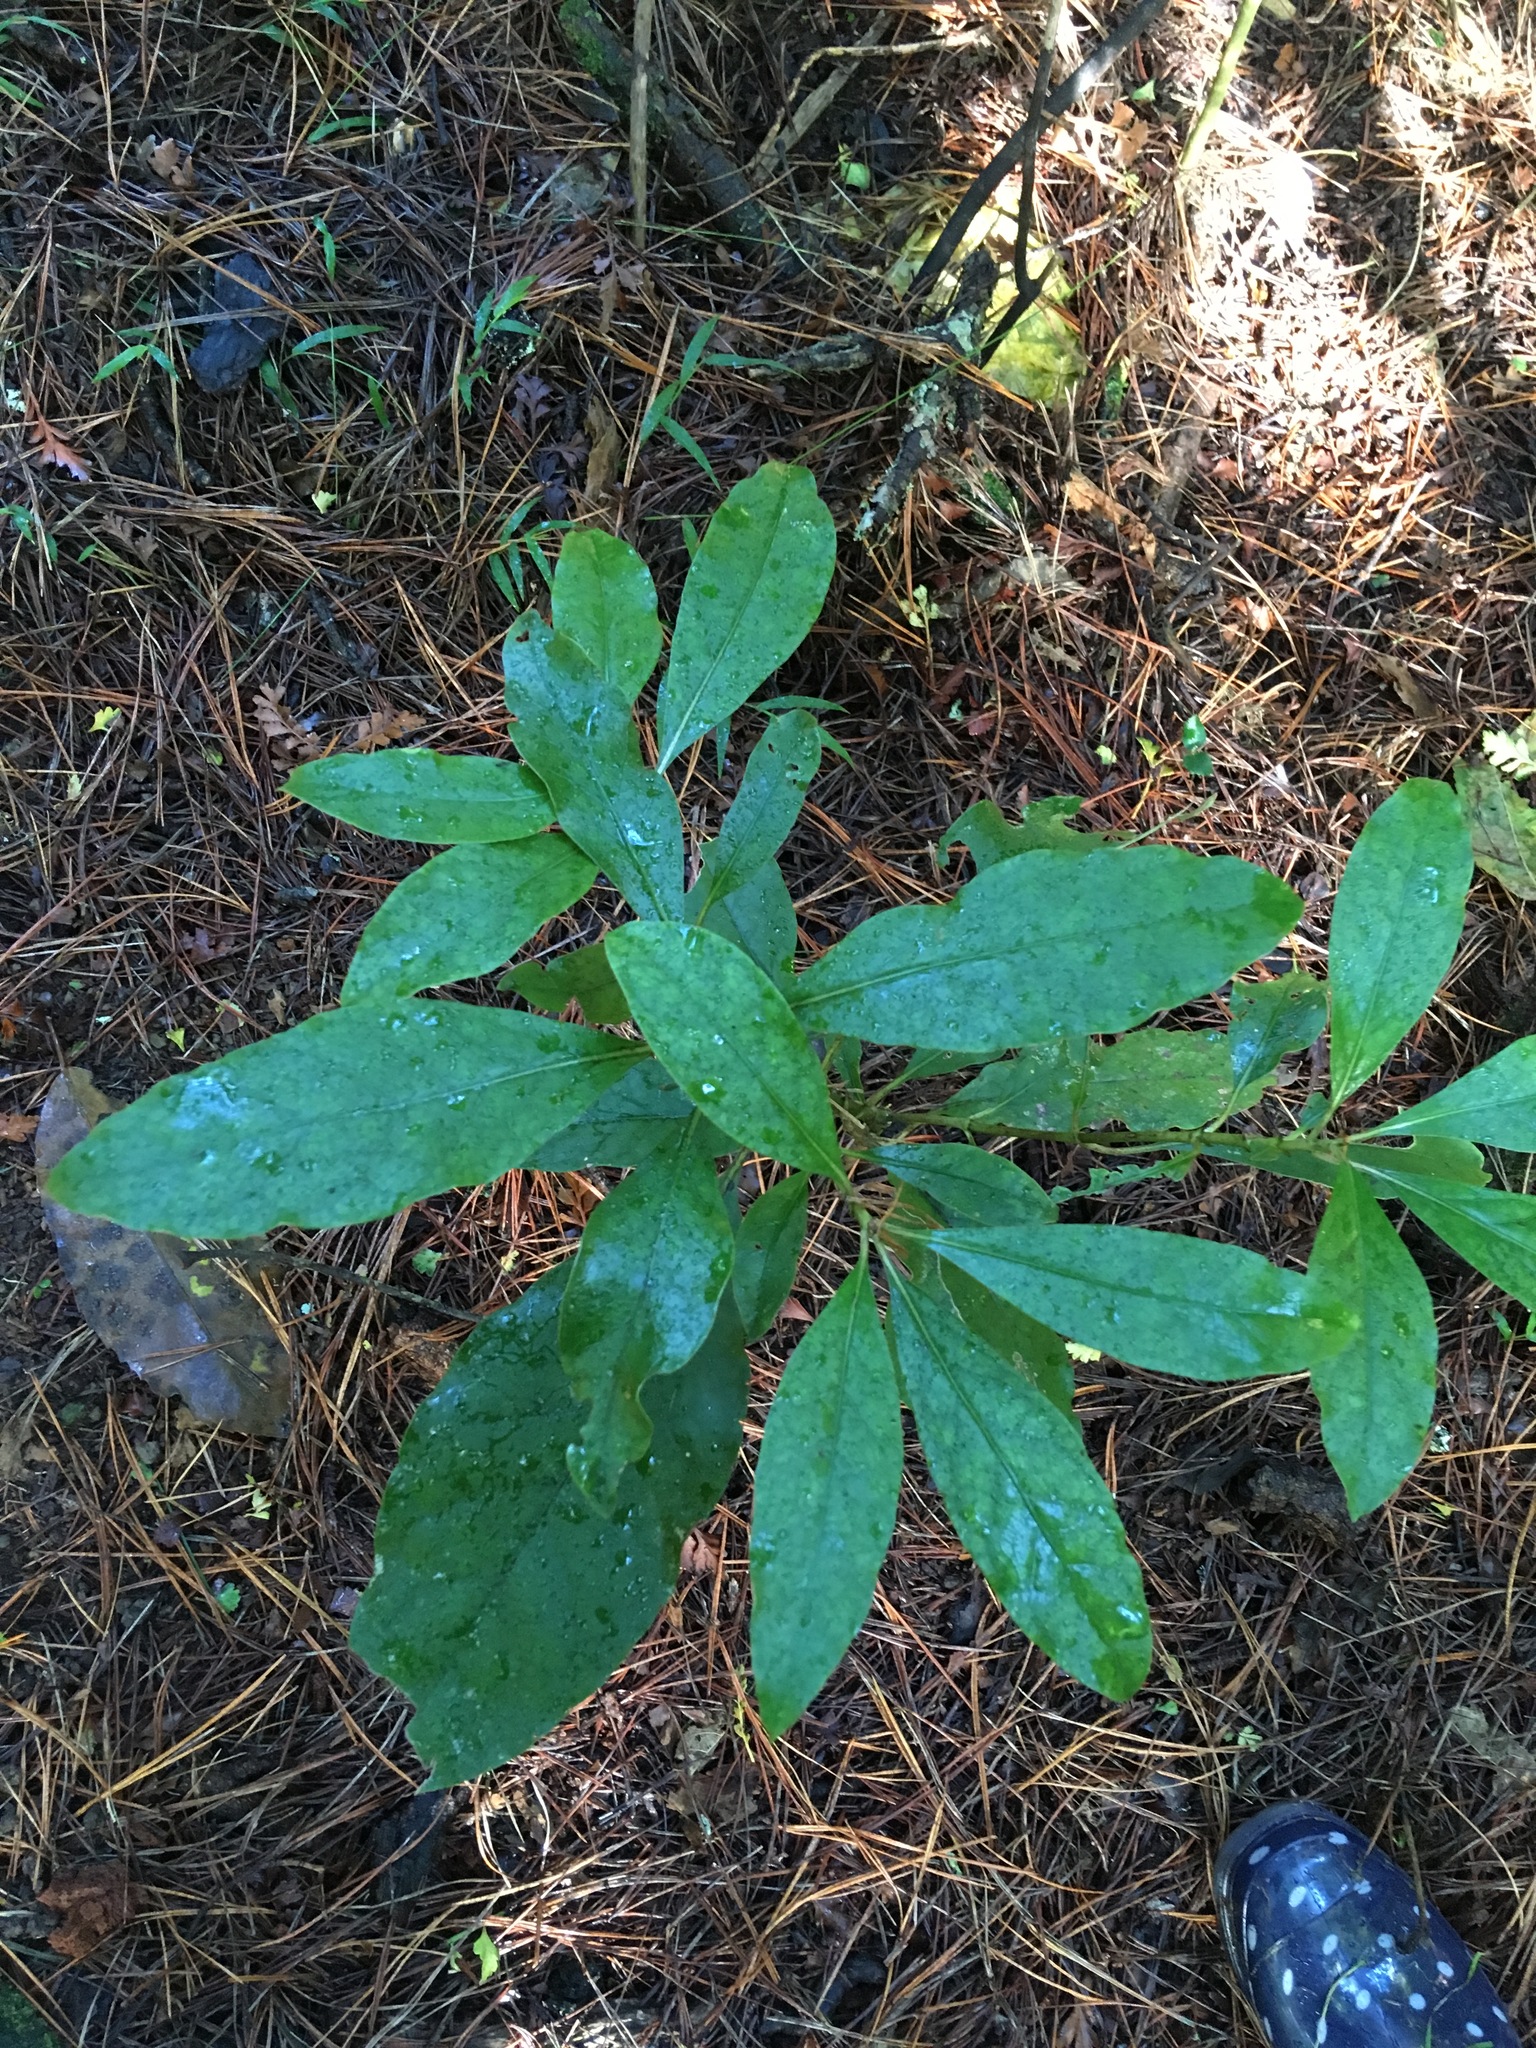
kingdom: Plantae
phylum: Tracheophyta
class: Magnoliopsida
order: Gentianales
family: Rubiaceae
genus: Coprosma
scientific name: Coprosma autumnalis
